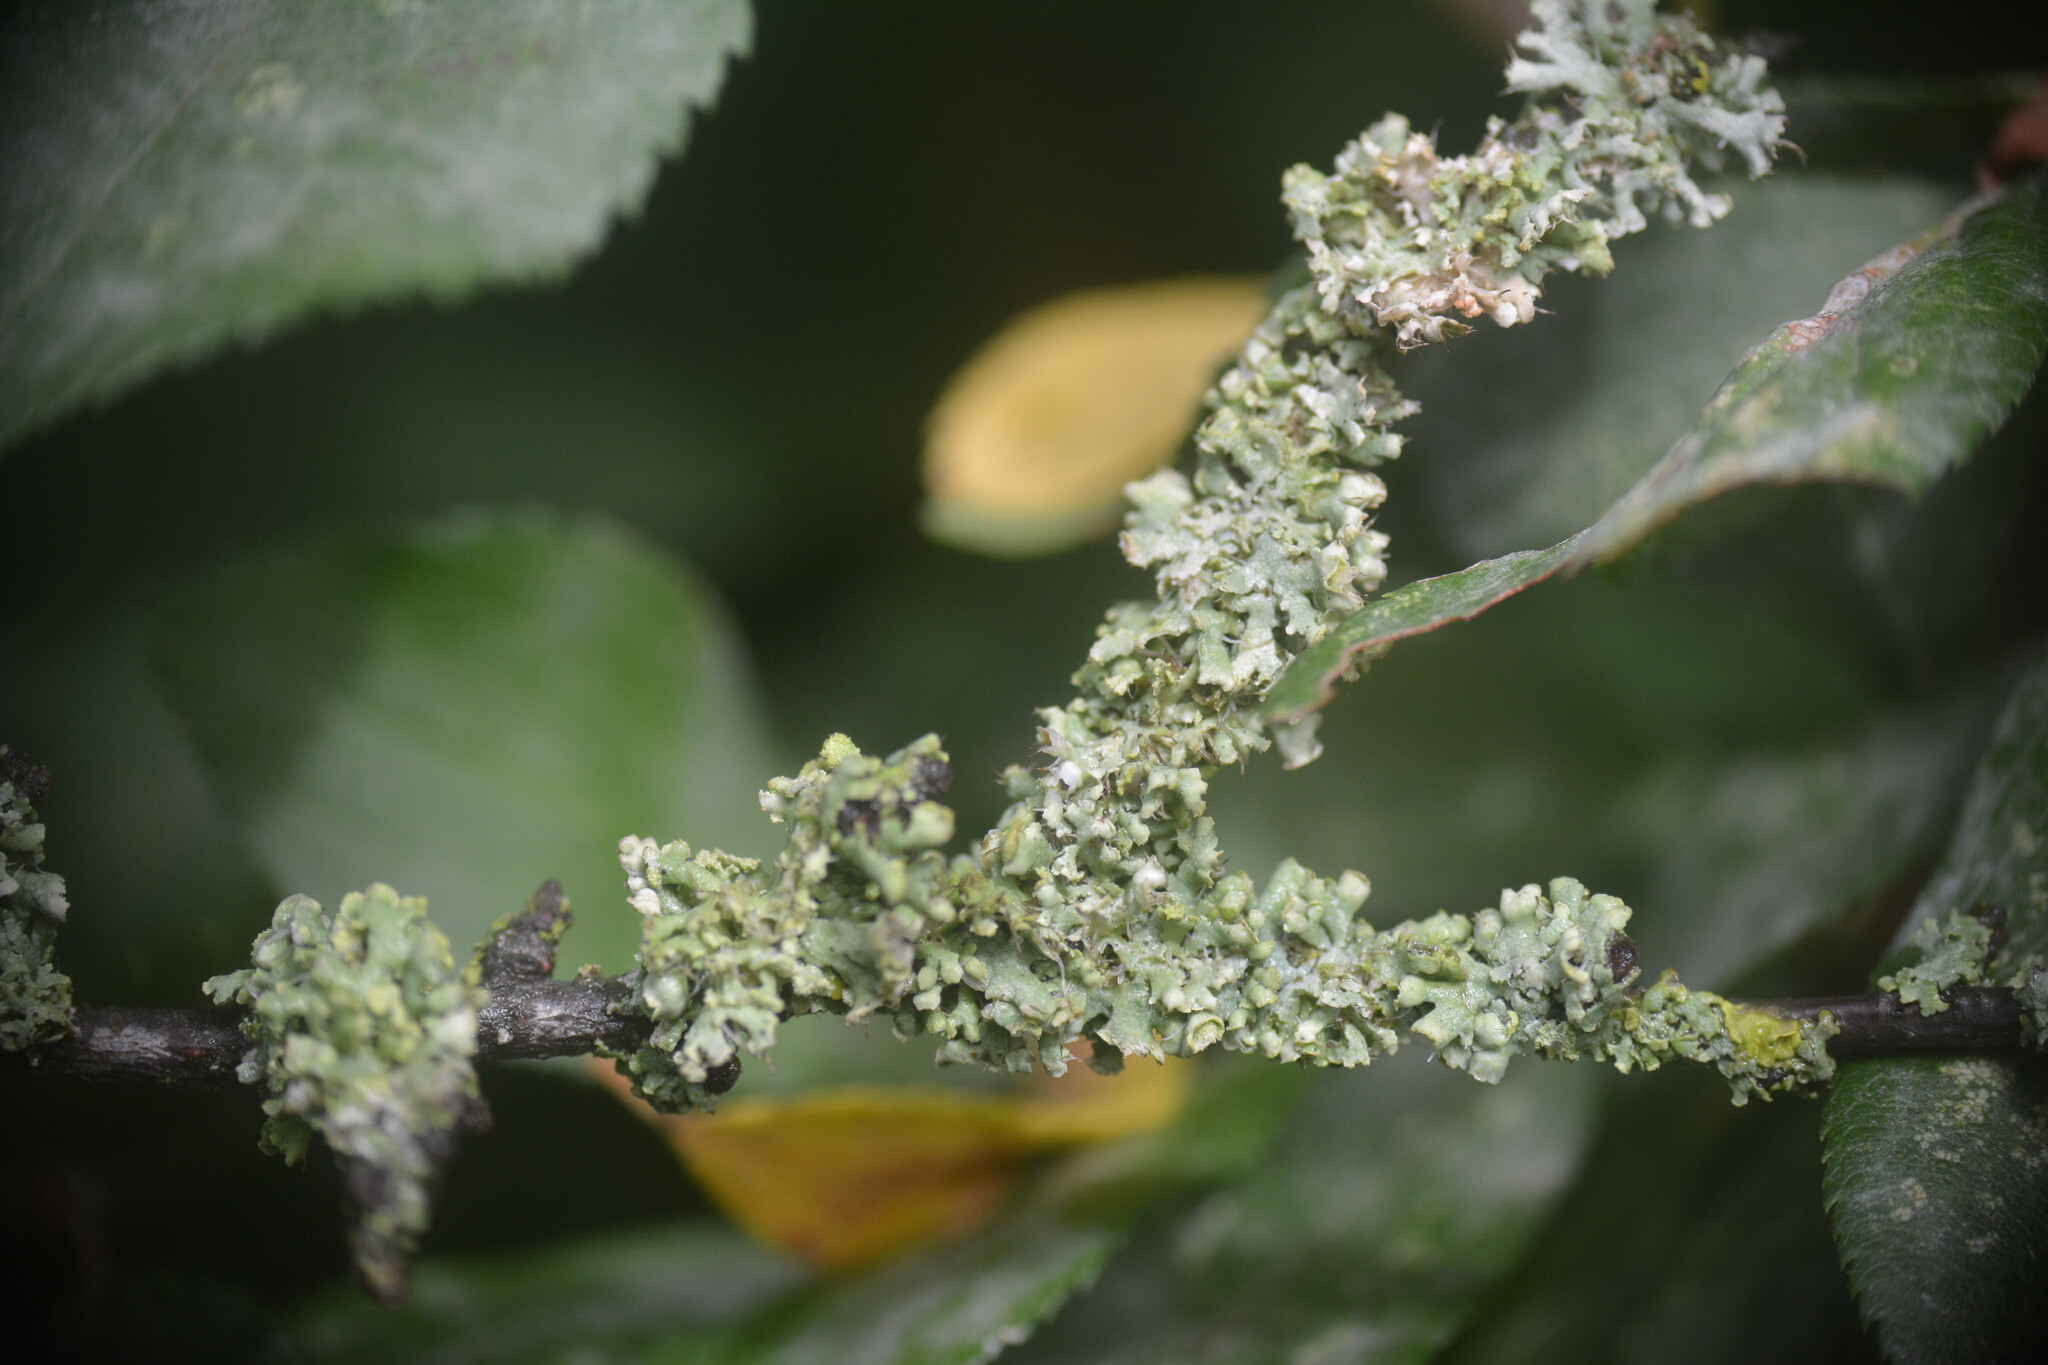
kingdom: Fungi
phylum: Ascomycota
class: Lecanoromycetes
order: Caliciales
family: Physciaceae
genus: Physcia
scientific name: Physcia adscendens
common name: Hooded rosette lichen
